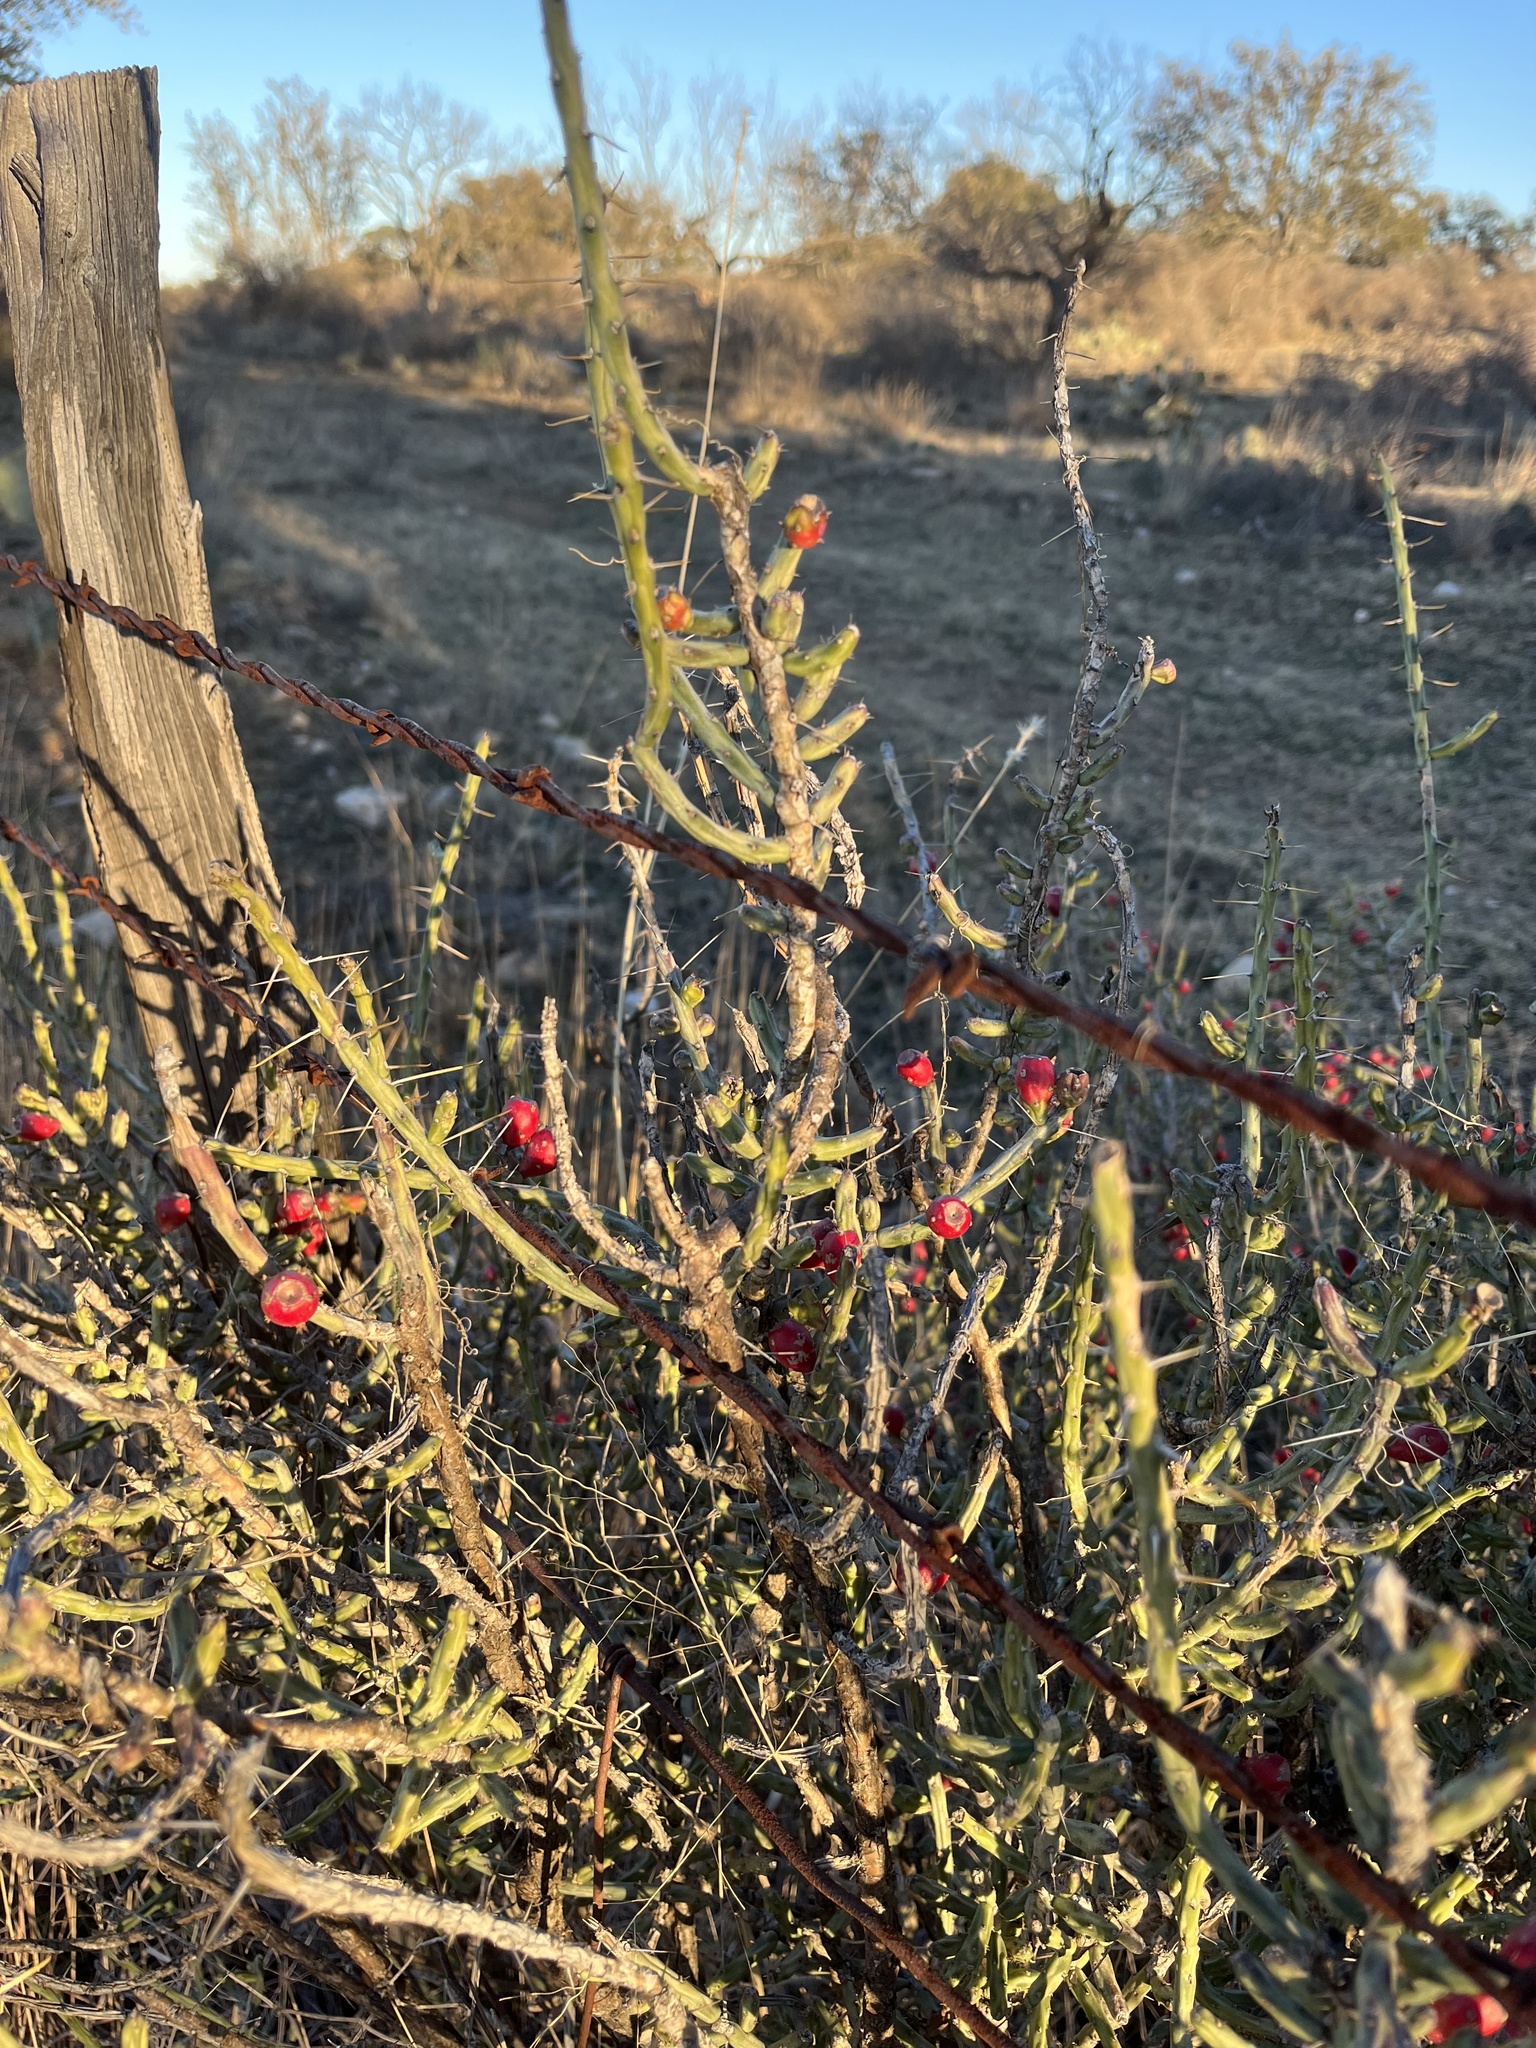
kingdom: Plantae
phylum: Tracheophyta
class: Magnoliopsida
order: Caryophyllales
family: Cactaceae
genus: Cylindropuntia
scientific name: Cylindropuntia leptocaulis
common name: Christmas cactus
